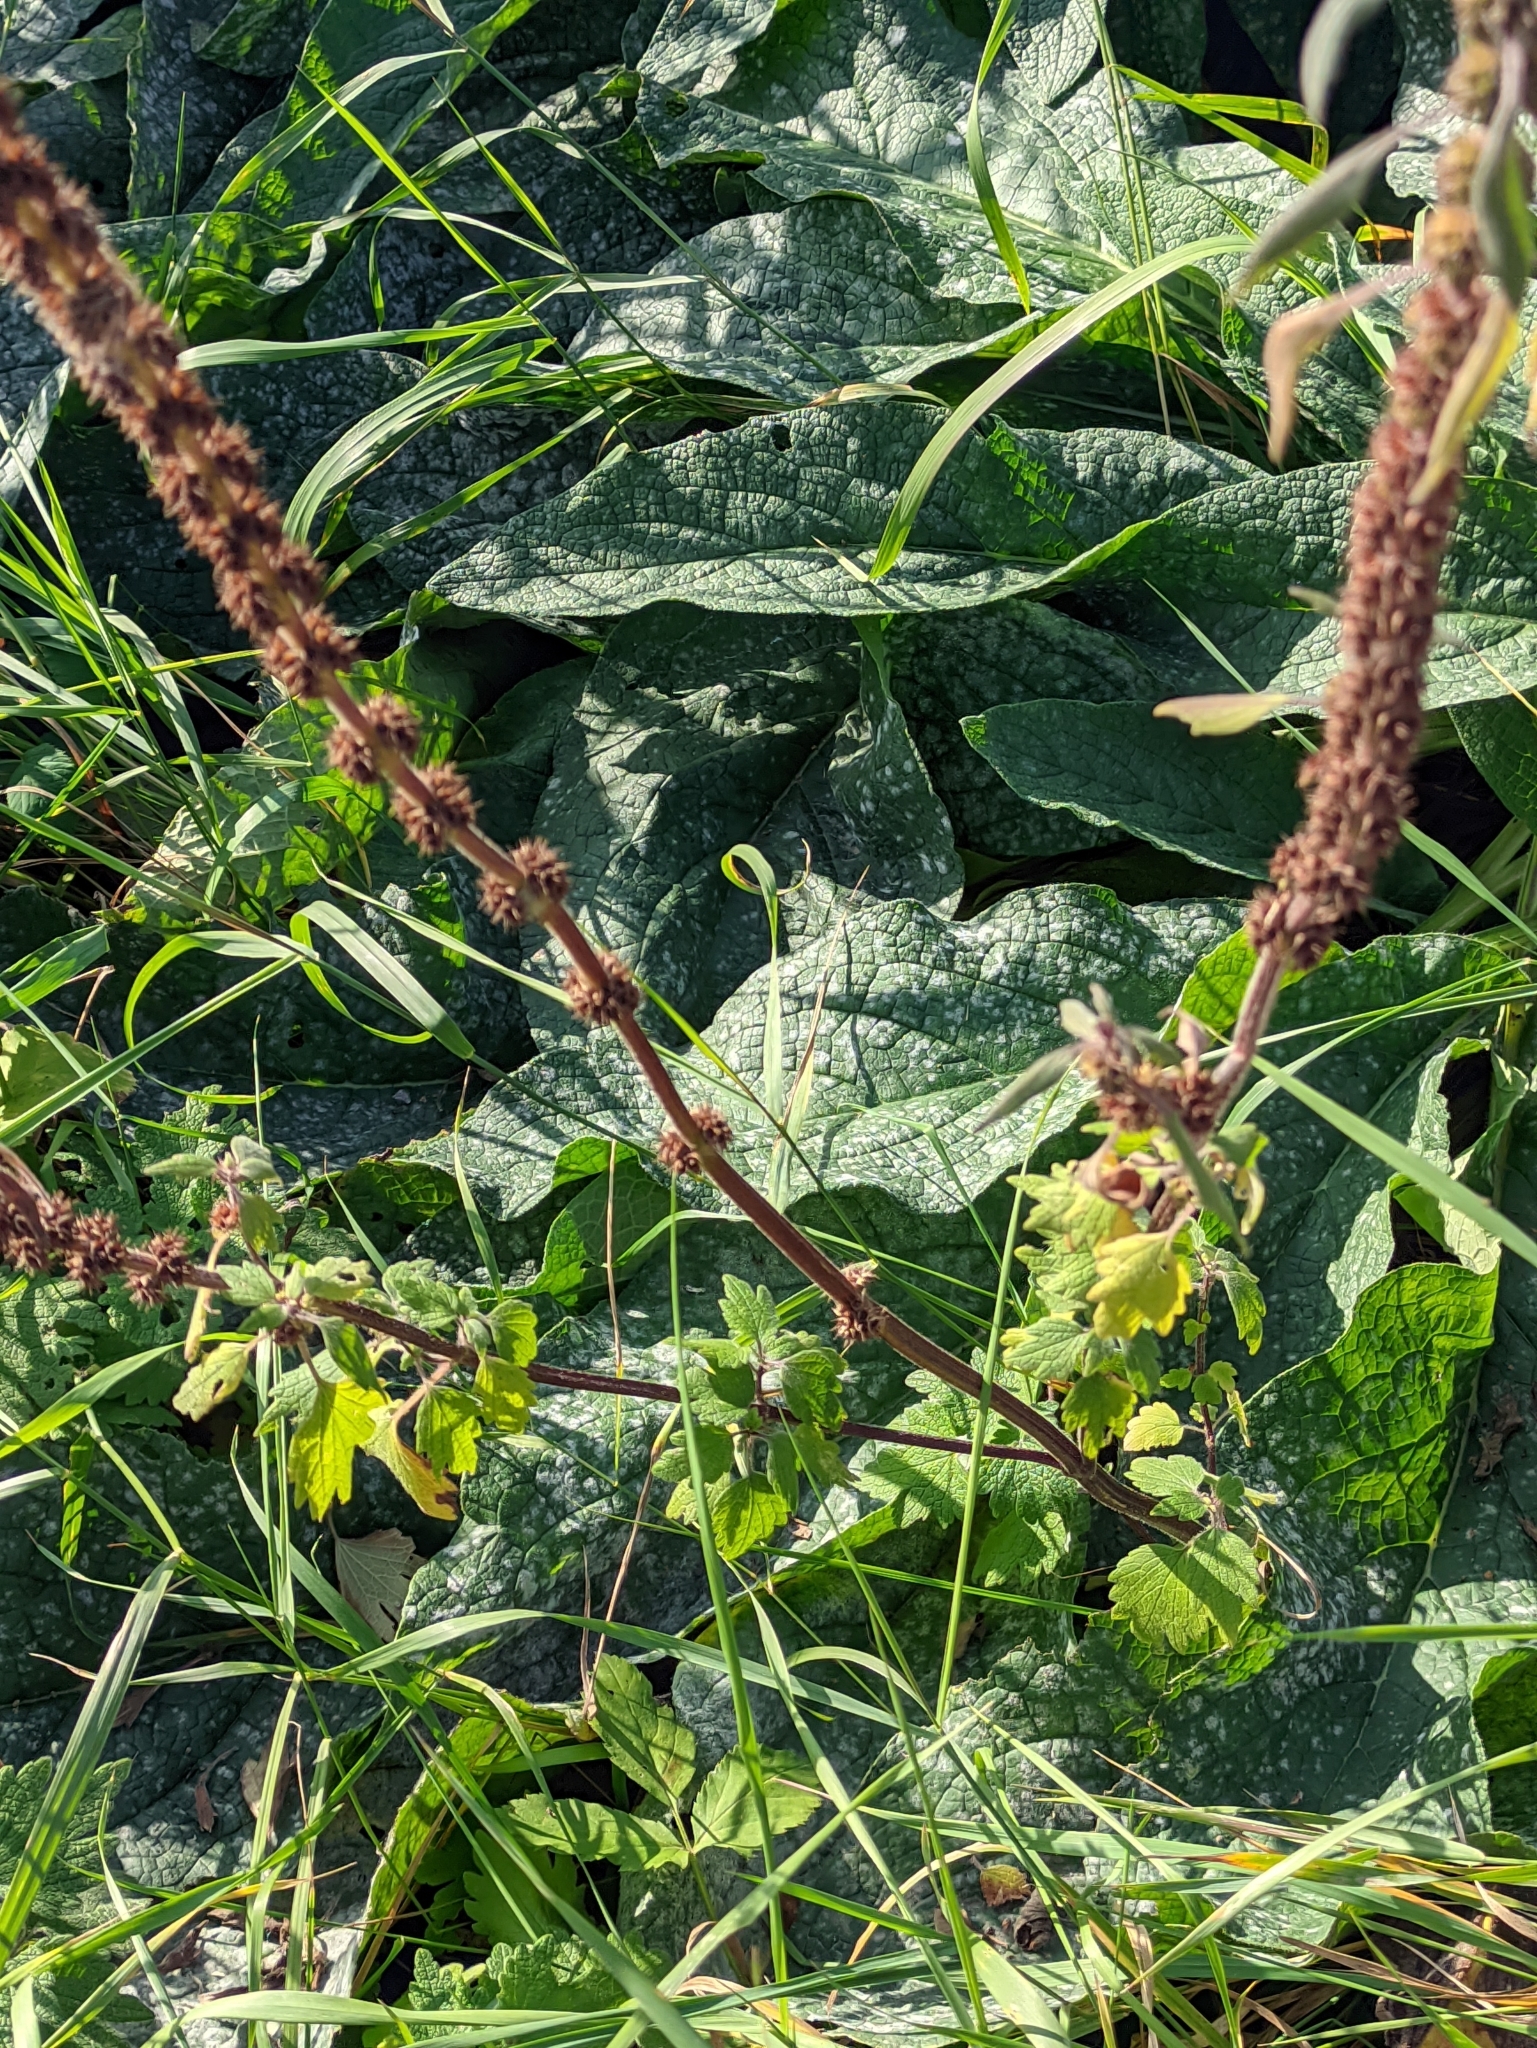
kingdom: Plantae
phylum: Tracheophyta
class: Magnoliopsida
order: Lamiales
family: Lamiaceae
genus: Leonurus
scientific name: Leonurus quinquelobatus
